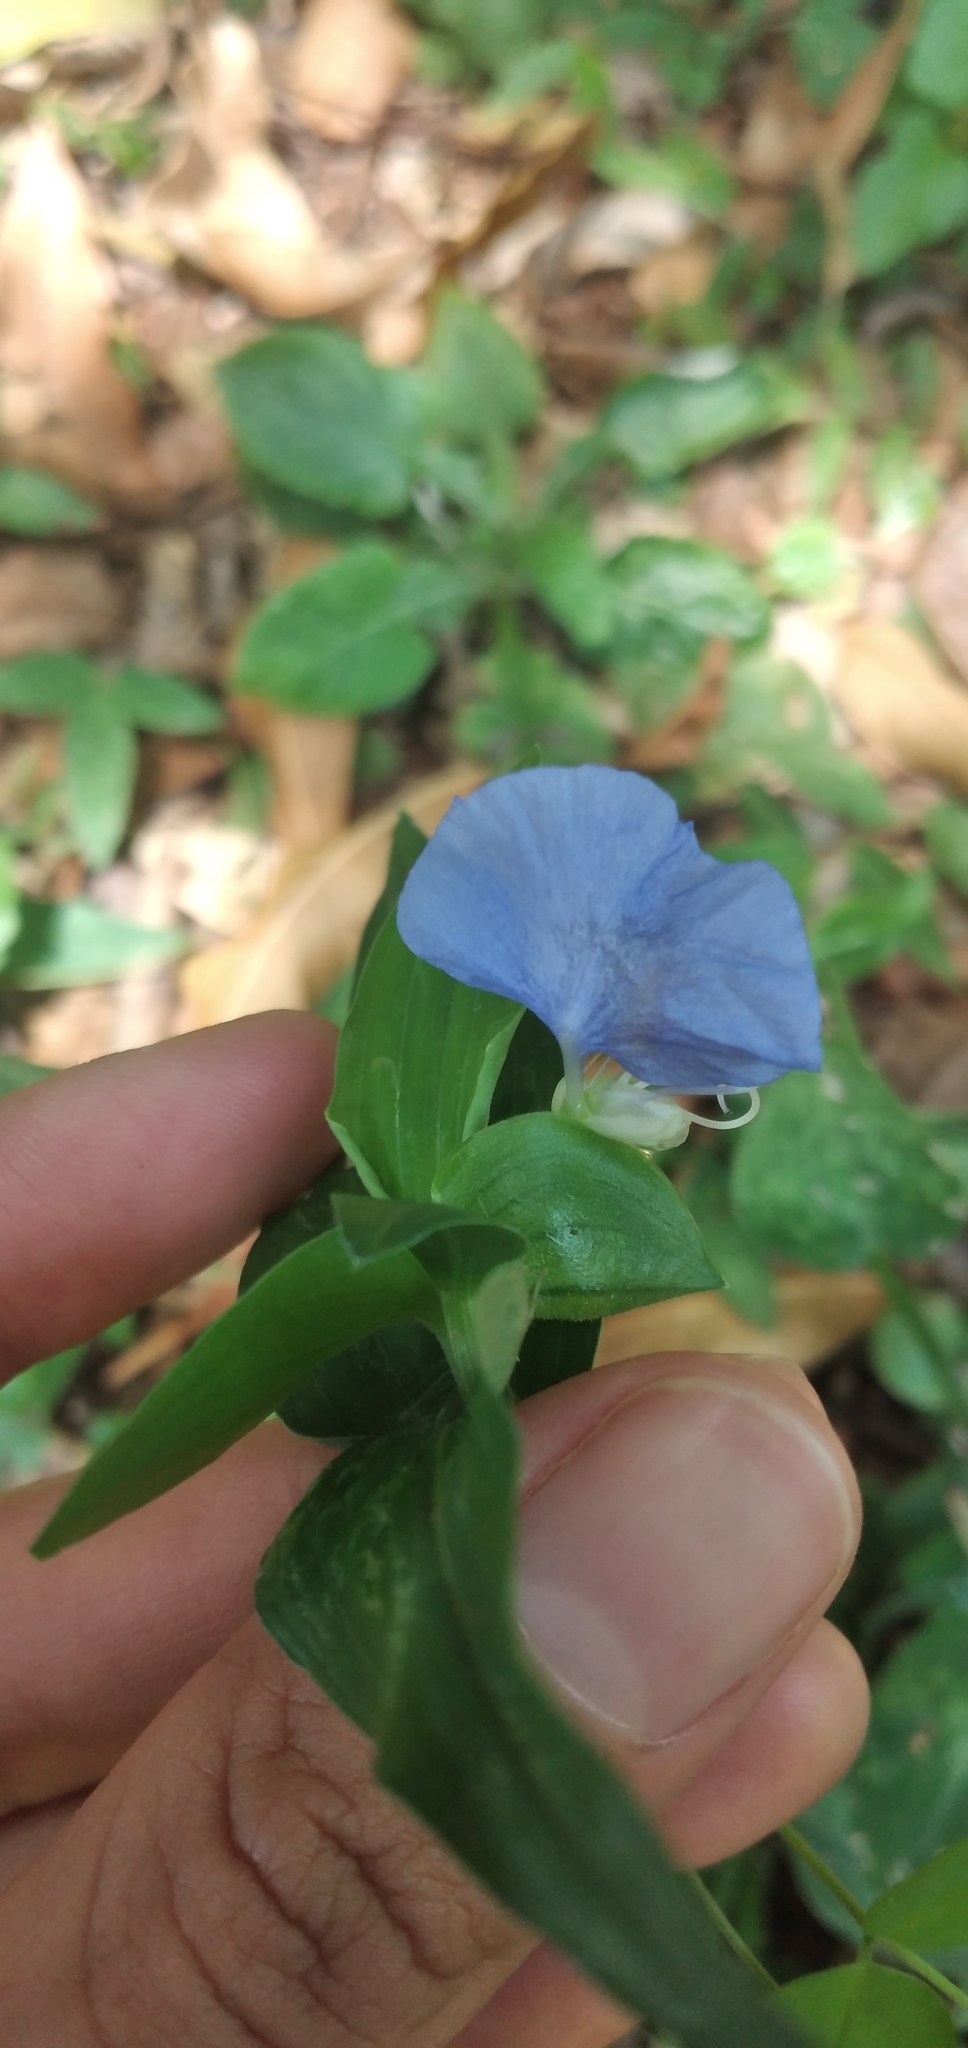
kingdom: Plantae
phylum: Tracheophyta
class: Liliopsida
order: Commelinales
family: Commelinaceae
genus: Commelina
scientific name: Commelina erecta
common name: Blousel blommetjie
